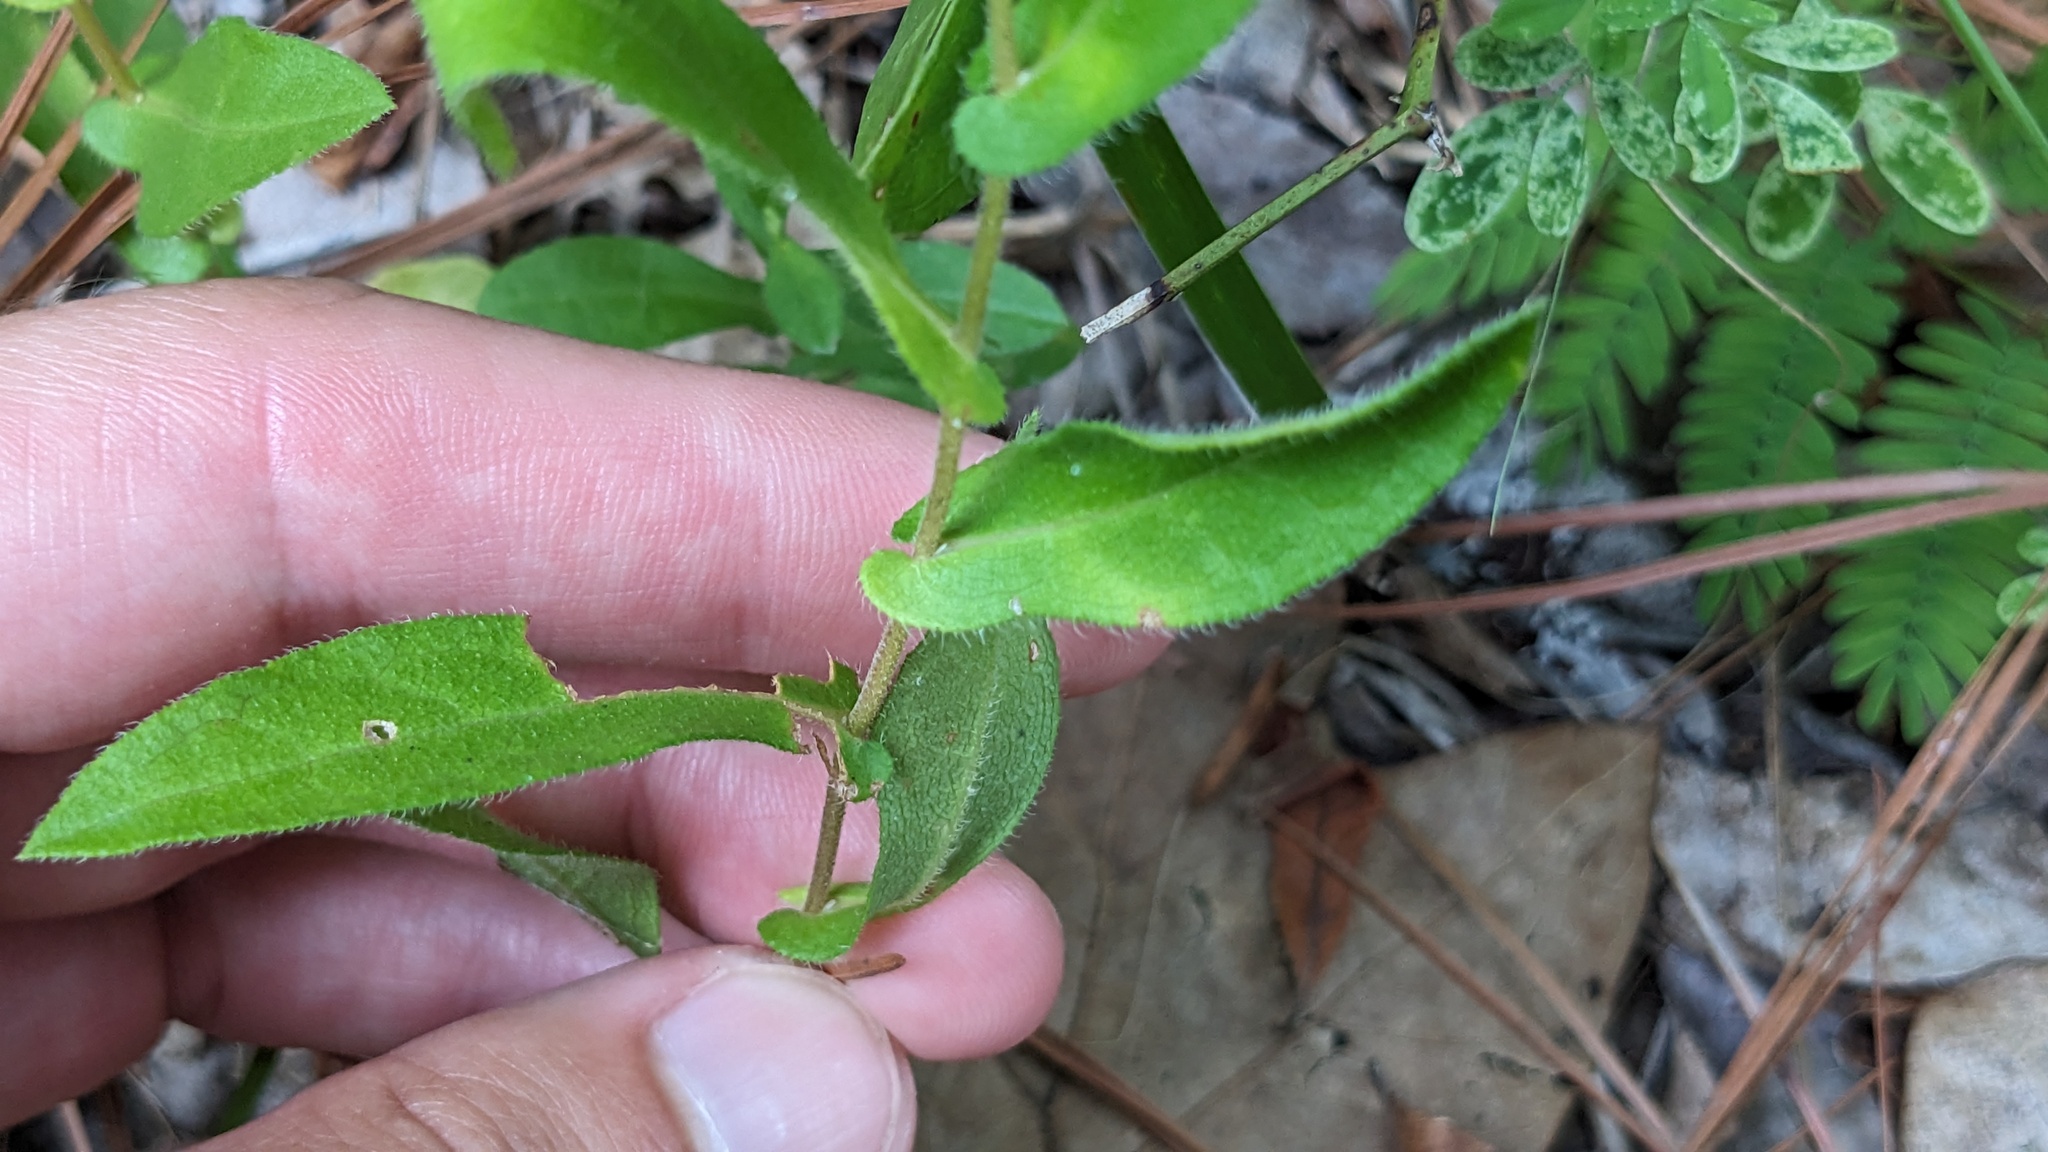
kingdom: Plantae
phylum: Tracheophyta
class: Magnoliopsida
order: Asterales
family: Asteraceae
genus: Symphyotrichum
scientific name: Symphyotrichum patens
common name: Late purple aster
